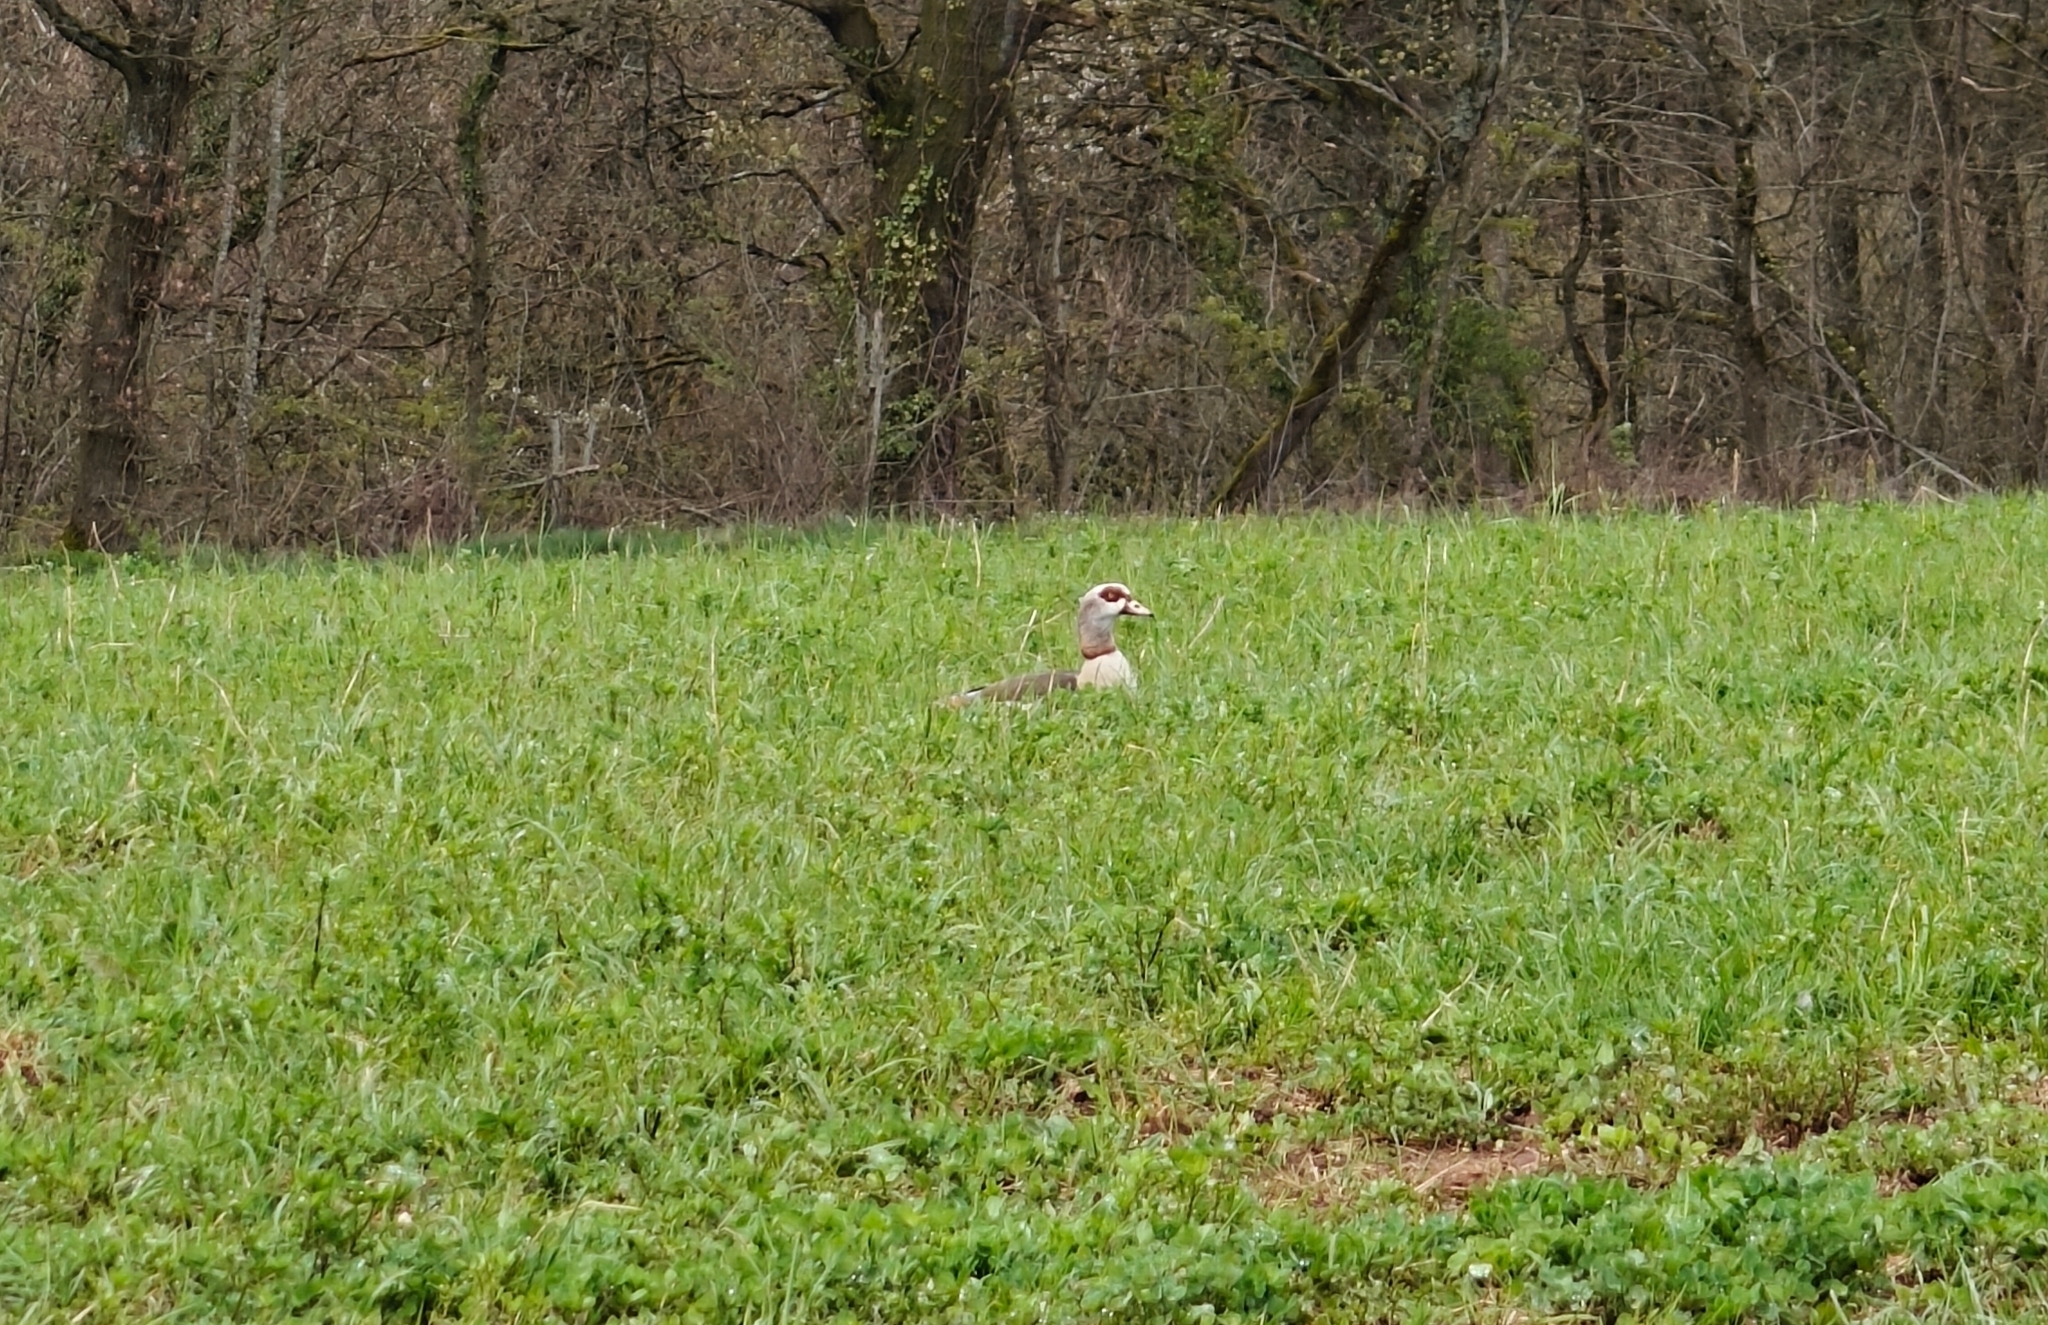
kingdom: Animalia
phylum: Chordata
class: Aves
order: Anseriformes
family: Anatidae
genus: Alopochen
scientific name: Alopochen aegyptiaca
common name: Egyptian goose
